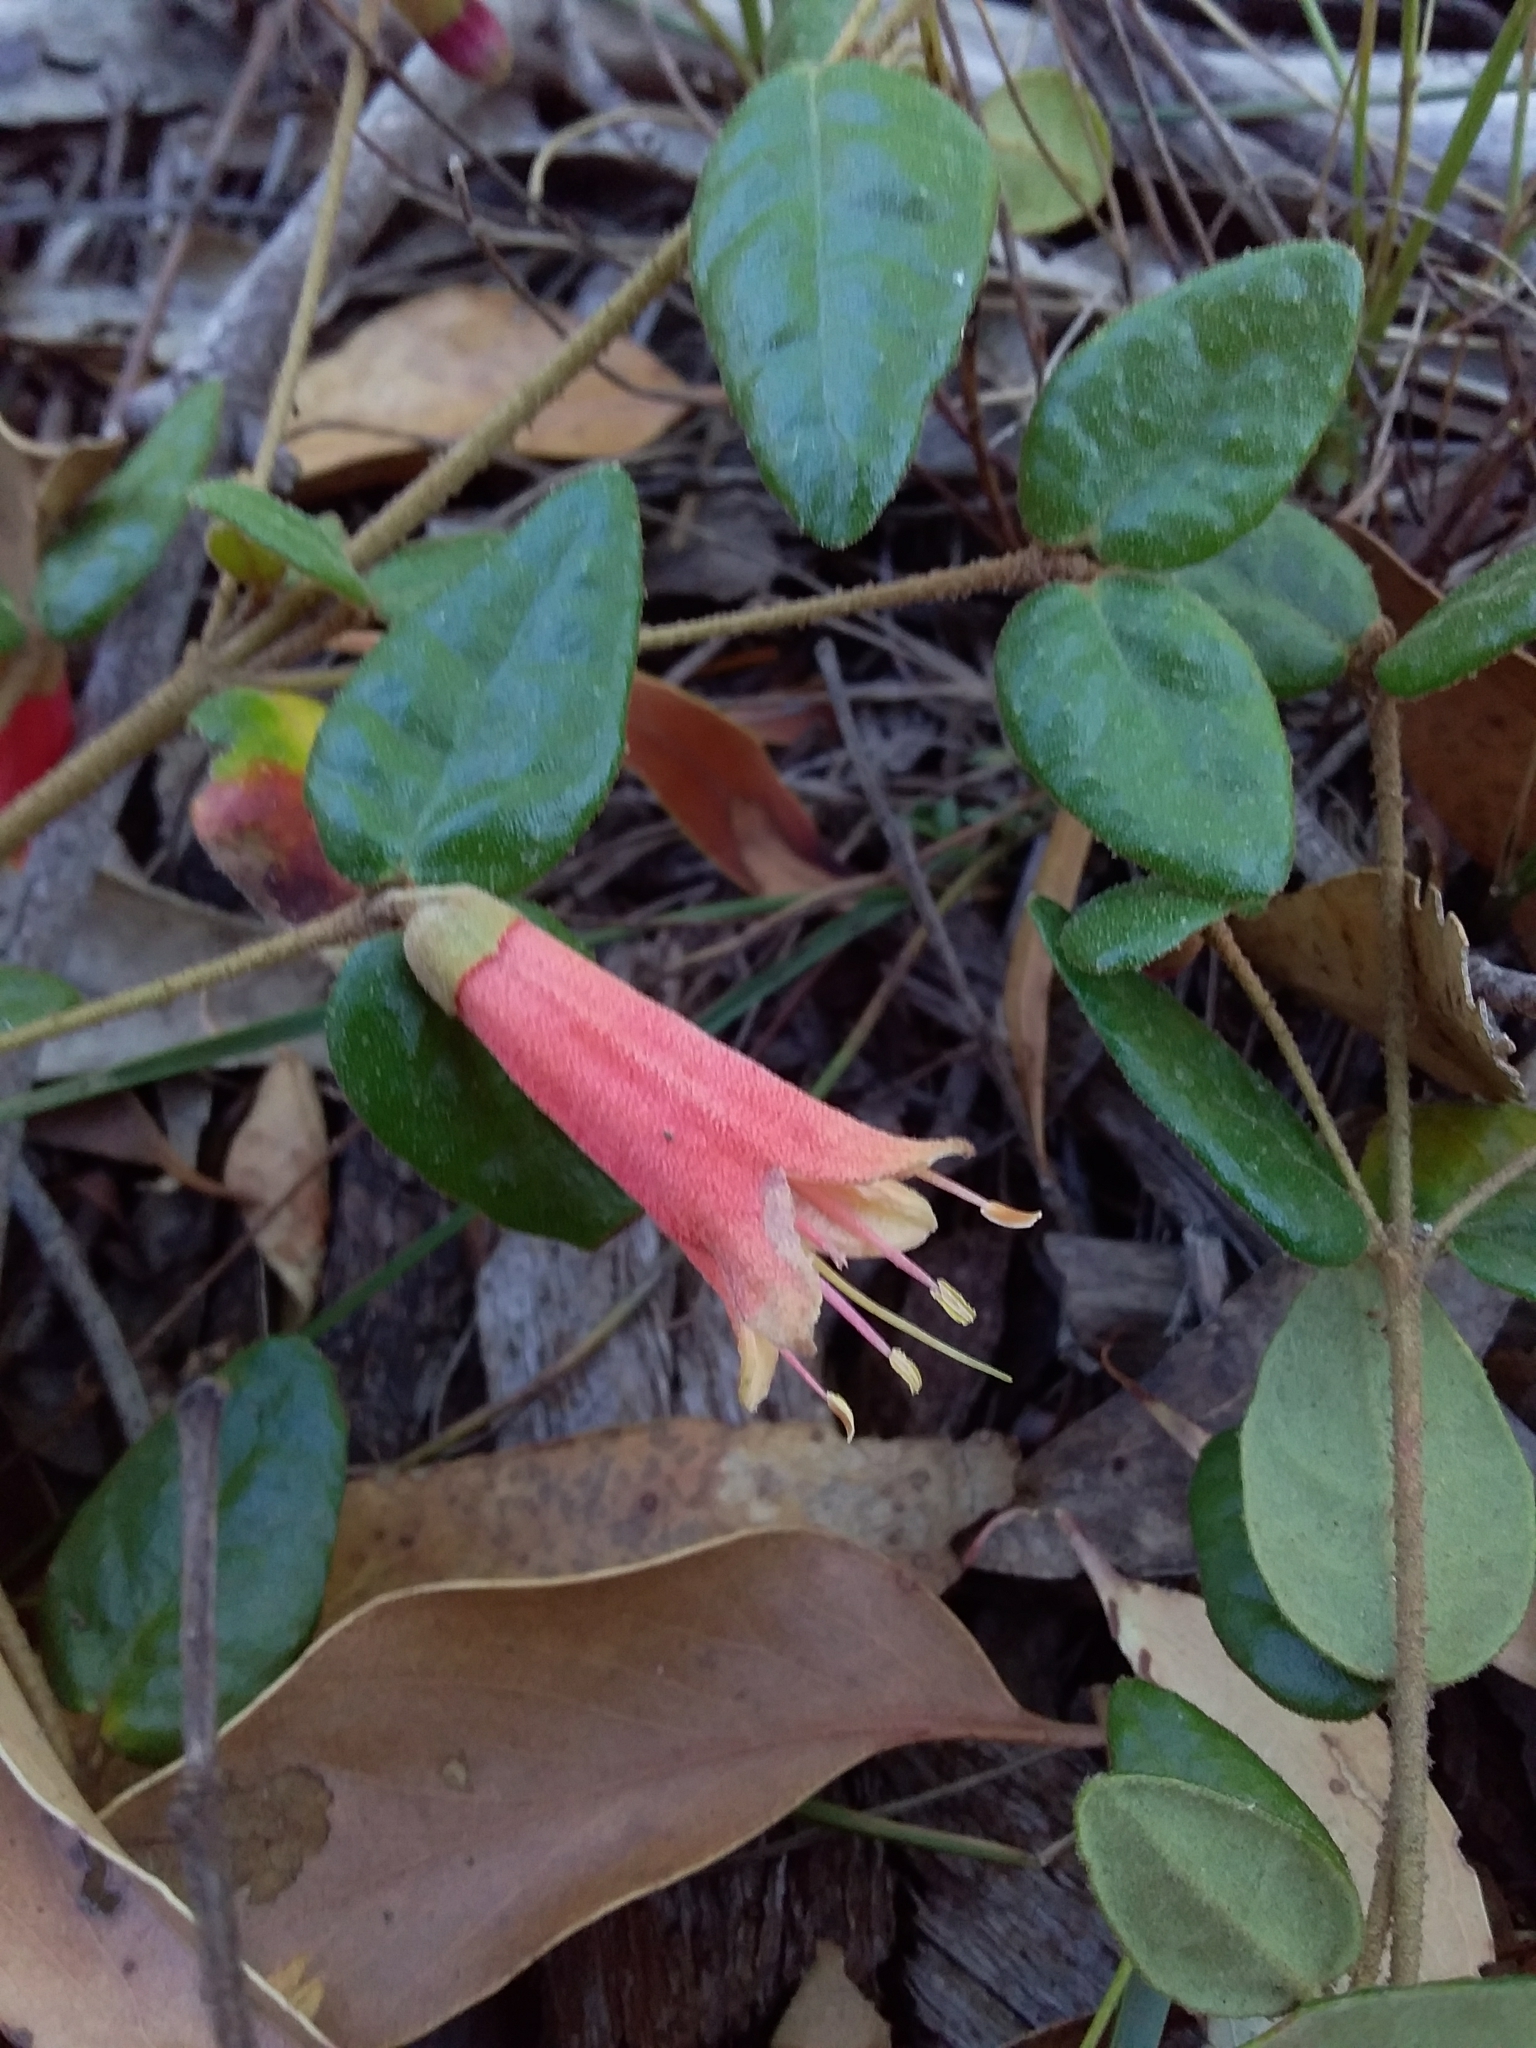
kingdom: Plantae
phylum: Tracheophyta
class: Magnoliopsida
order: Sapindales
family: Rutaceae
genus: Correa
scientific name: Correa reflexa
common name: Common correa
